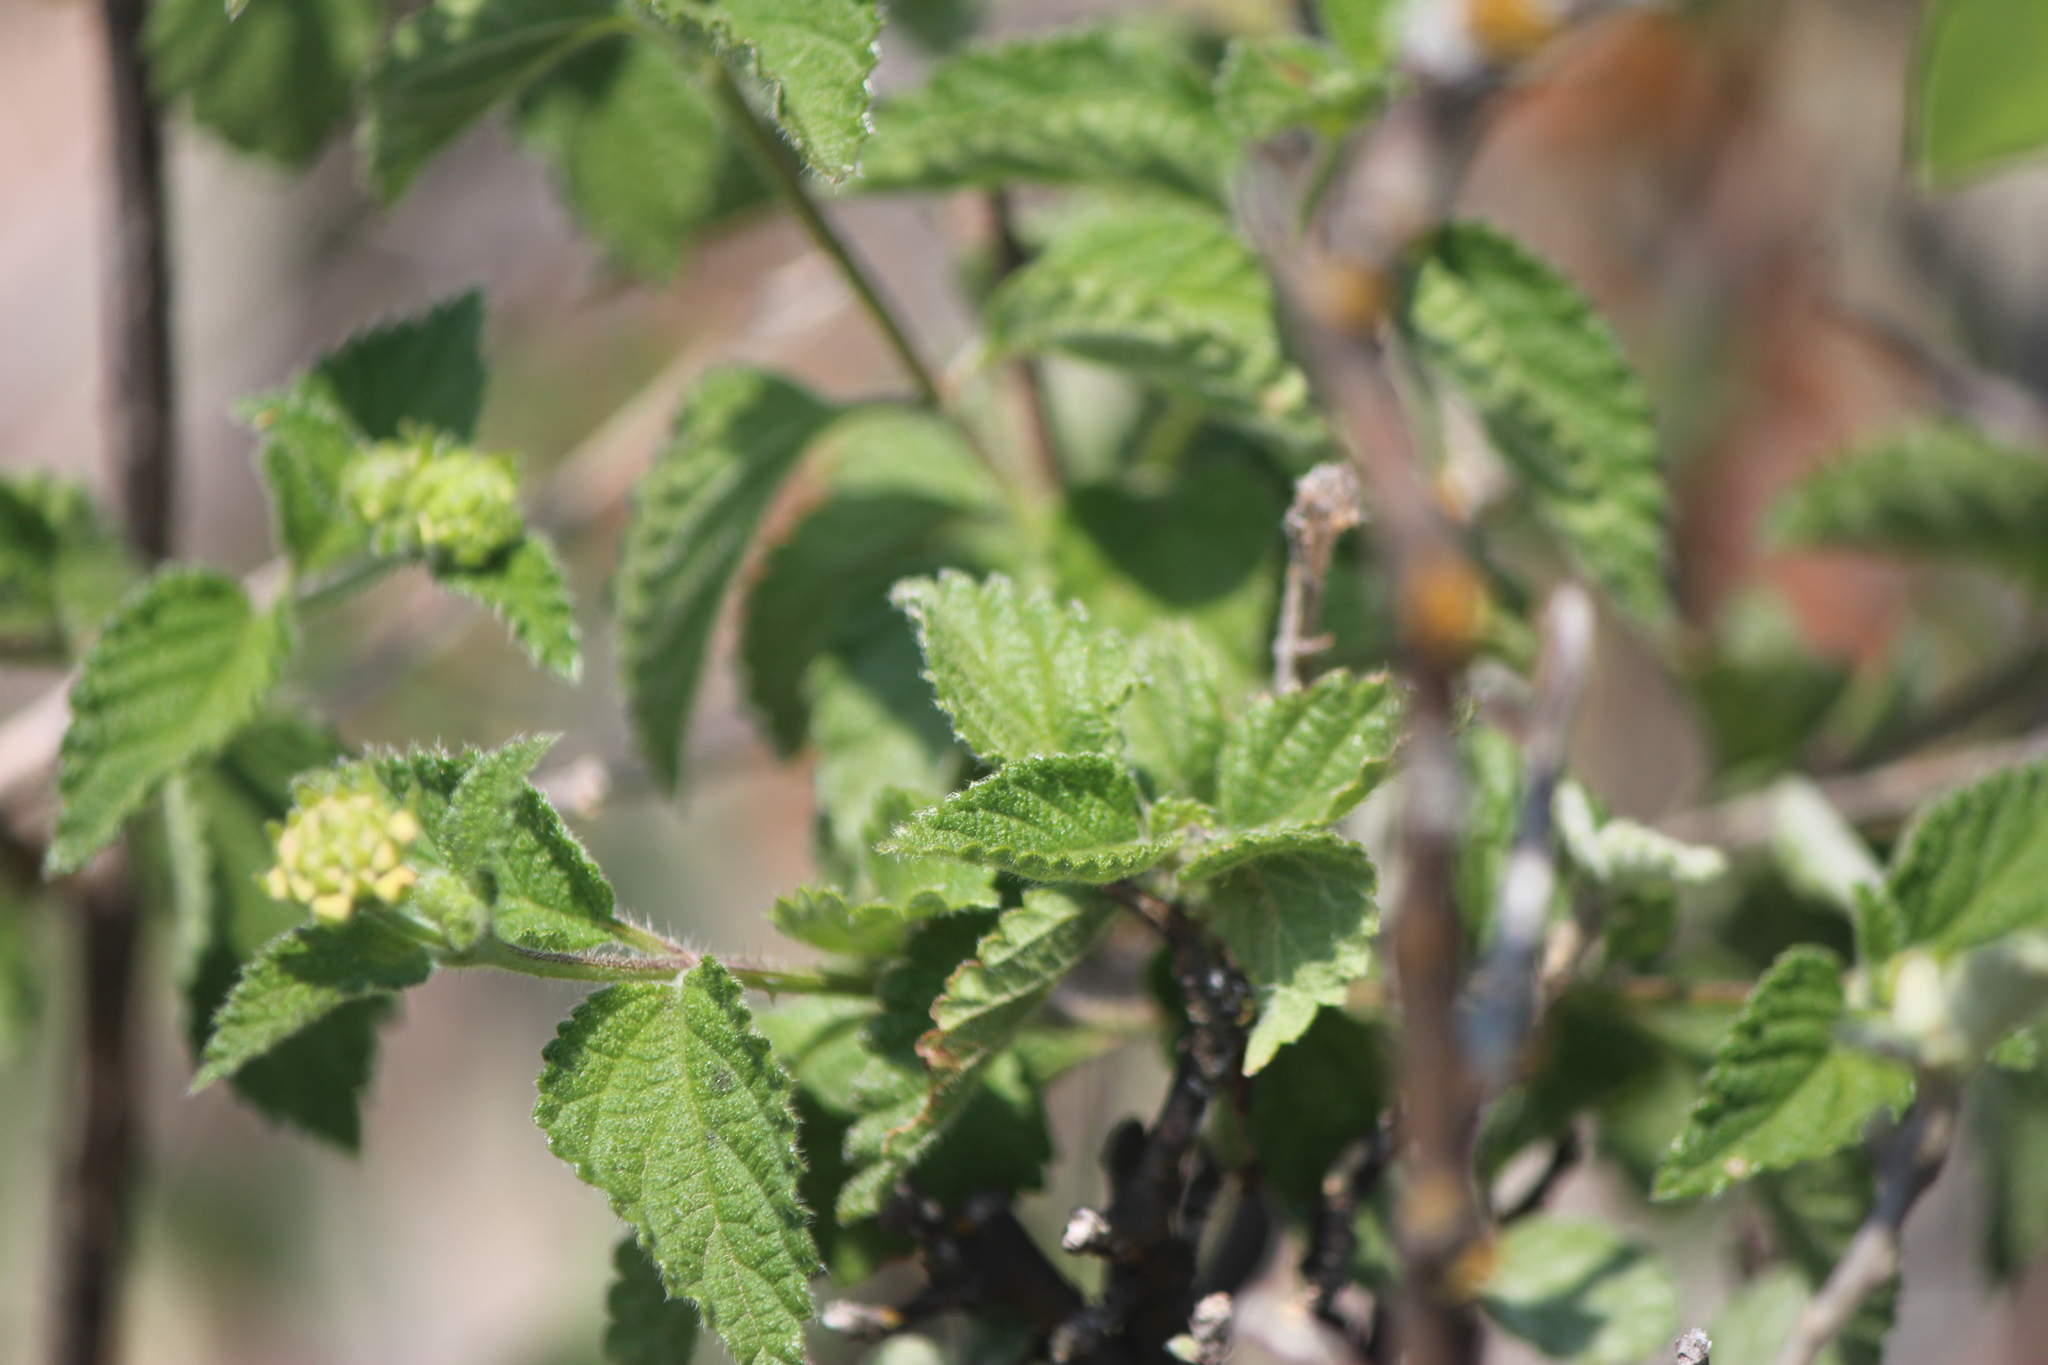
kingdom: Plantae
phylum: Tracheophyta
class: Magnoliopsida
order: Lamiales
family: Verbenaceae
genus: Lantana
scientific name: Lantana camara
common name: Lantana
